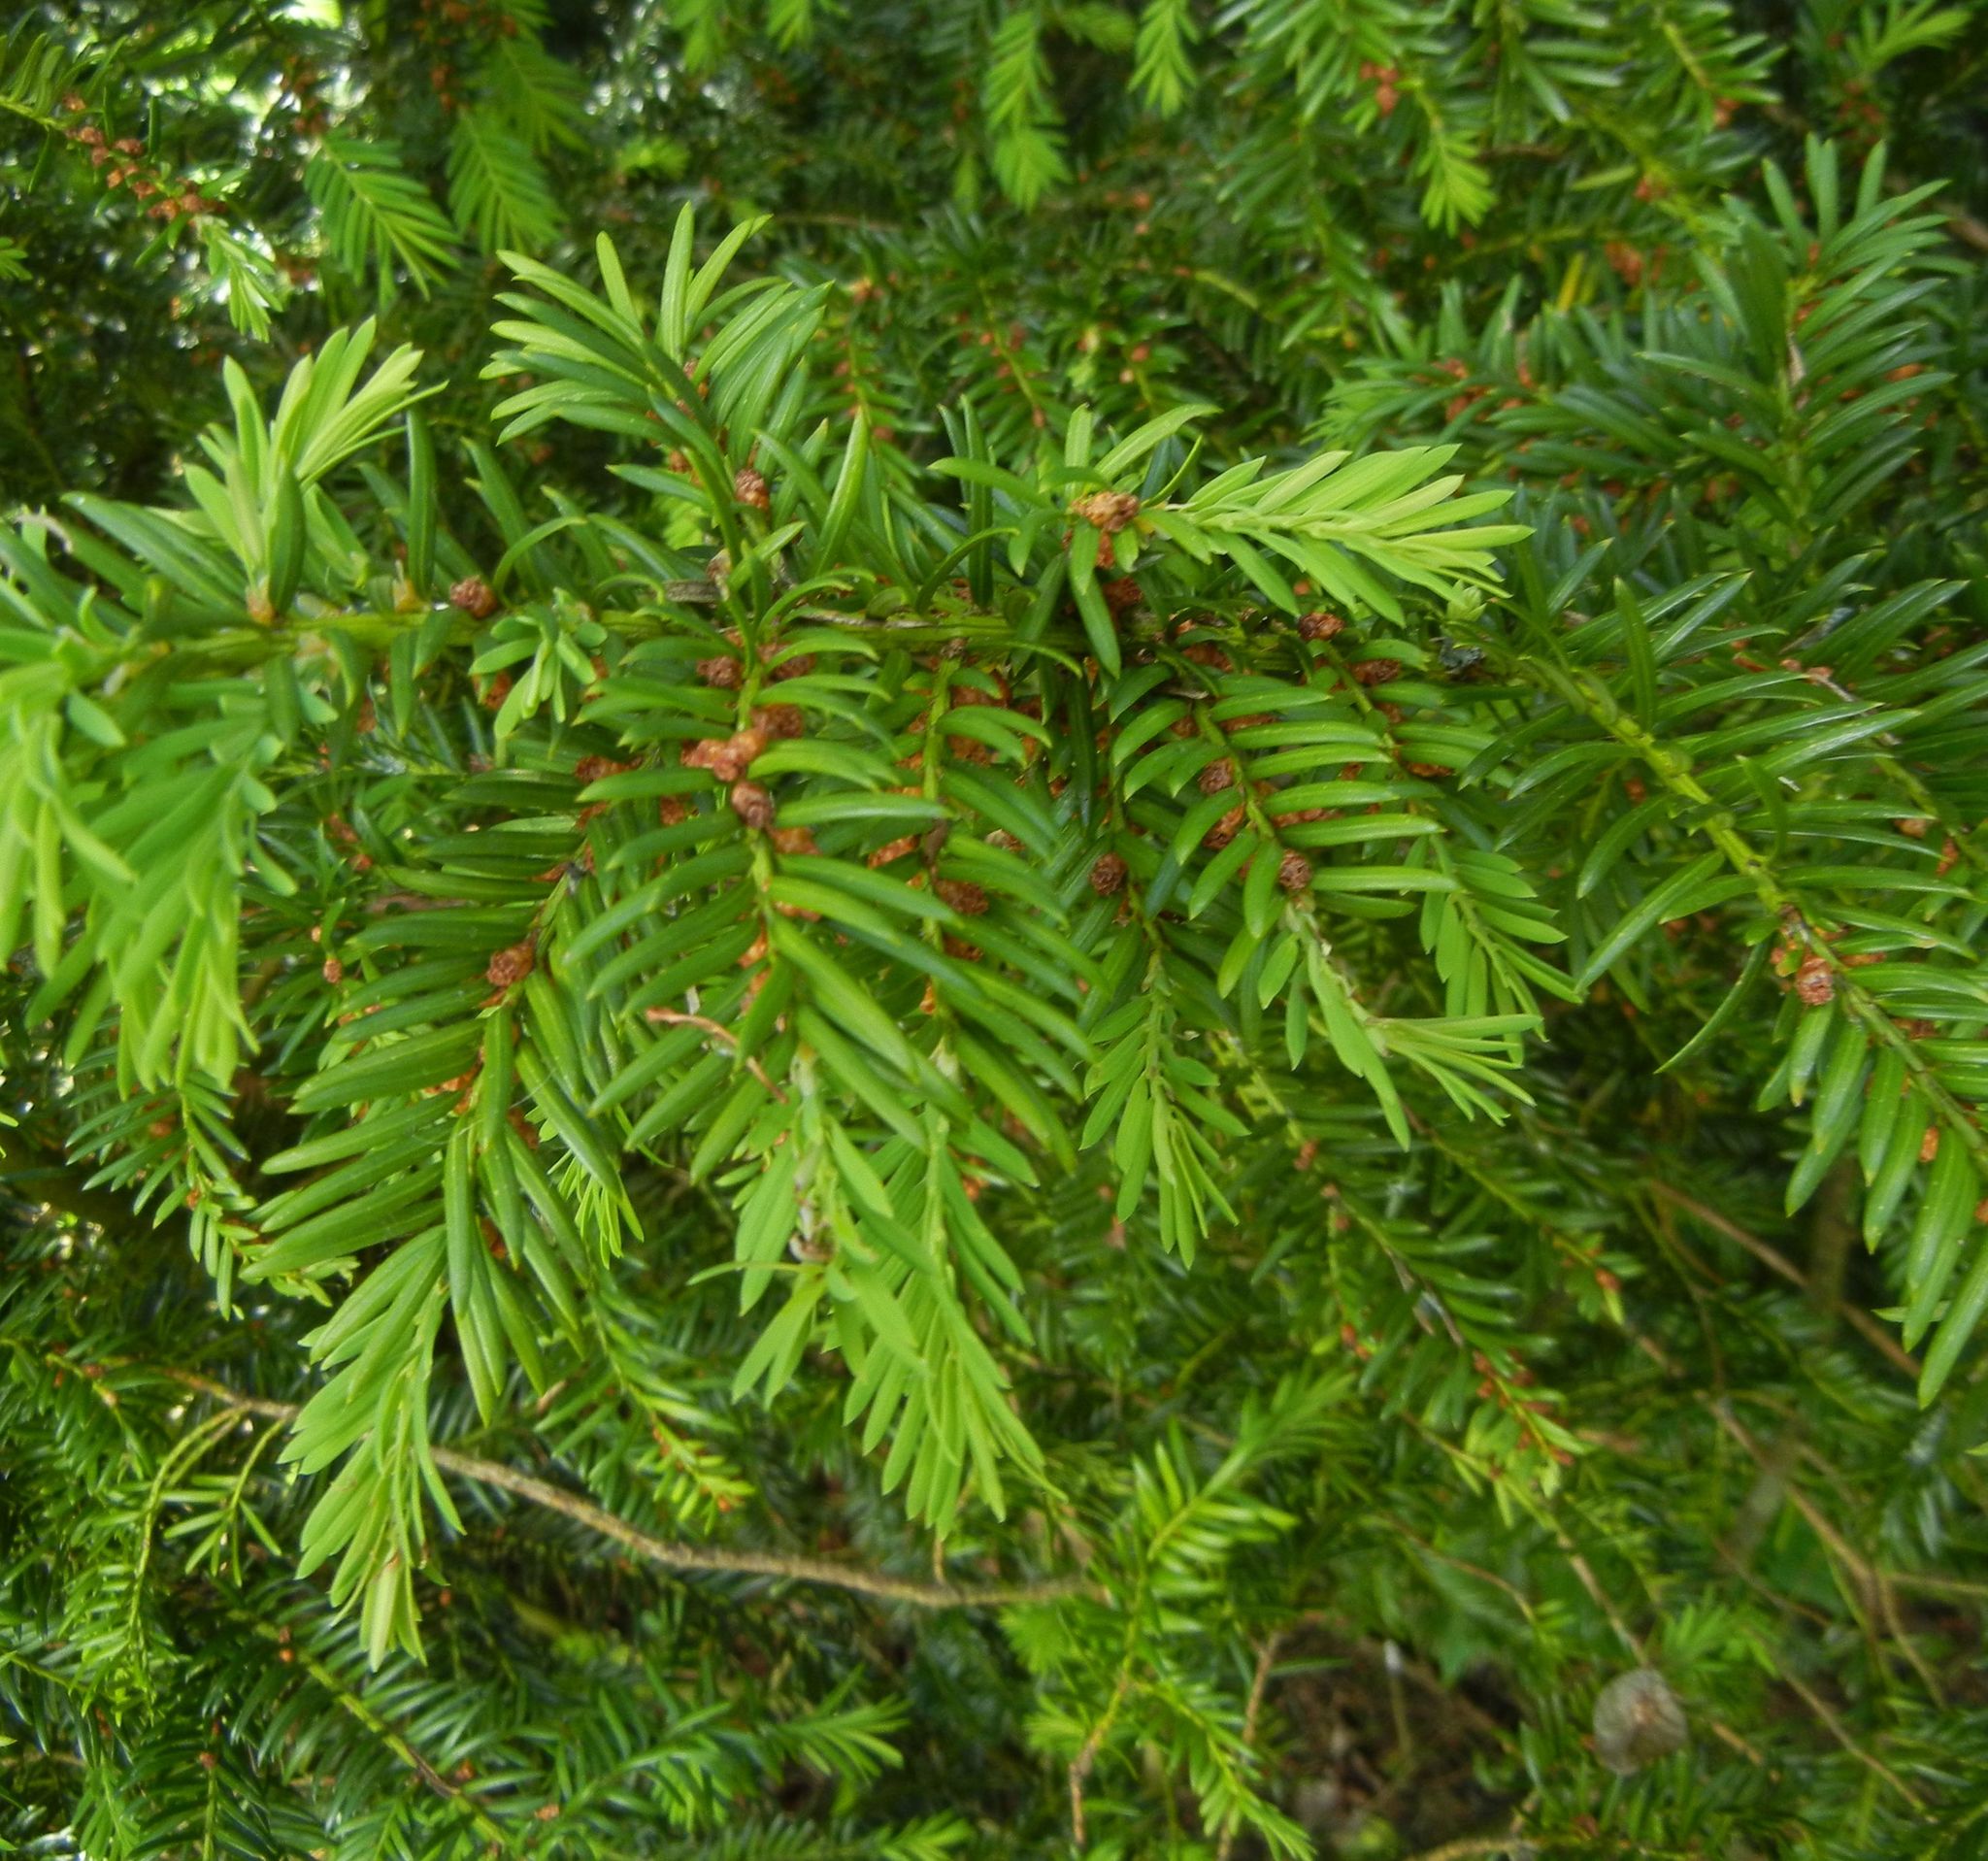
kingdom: Plantae
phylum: Tracheophyta
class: Pinopsida
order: Pinales
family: Taxaceae
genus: Taxus
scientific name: Taxus baccata
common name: Yew
